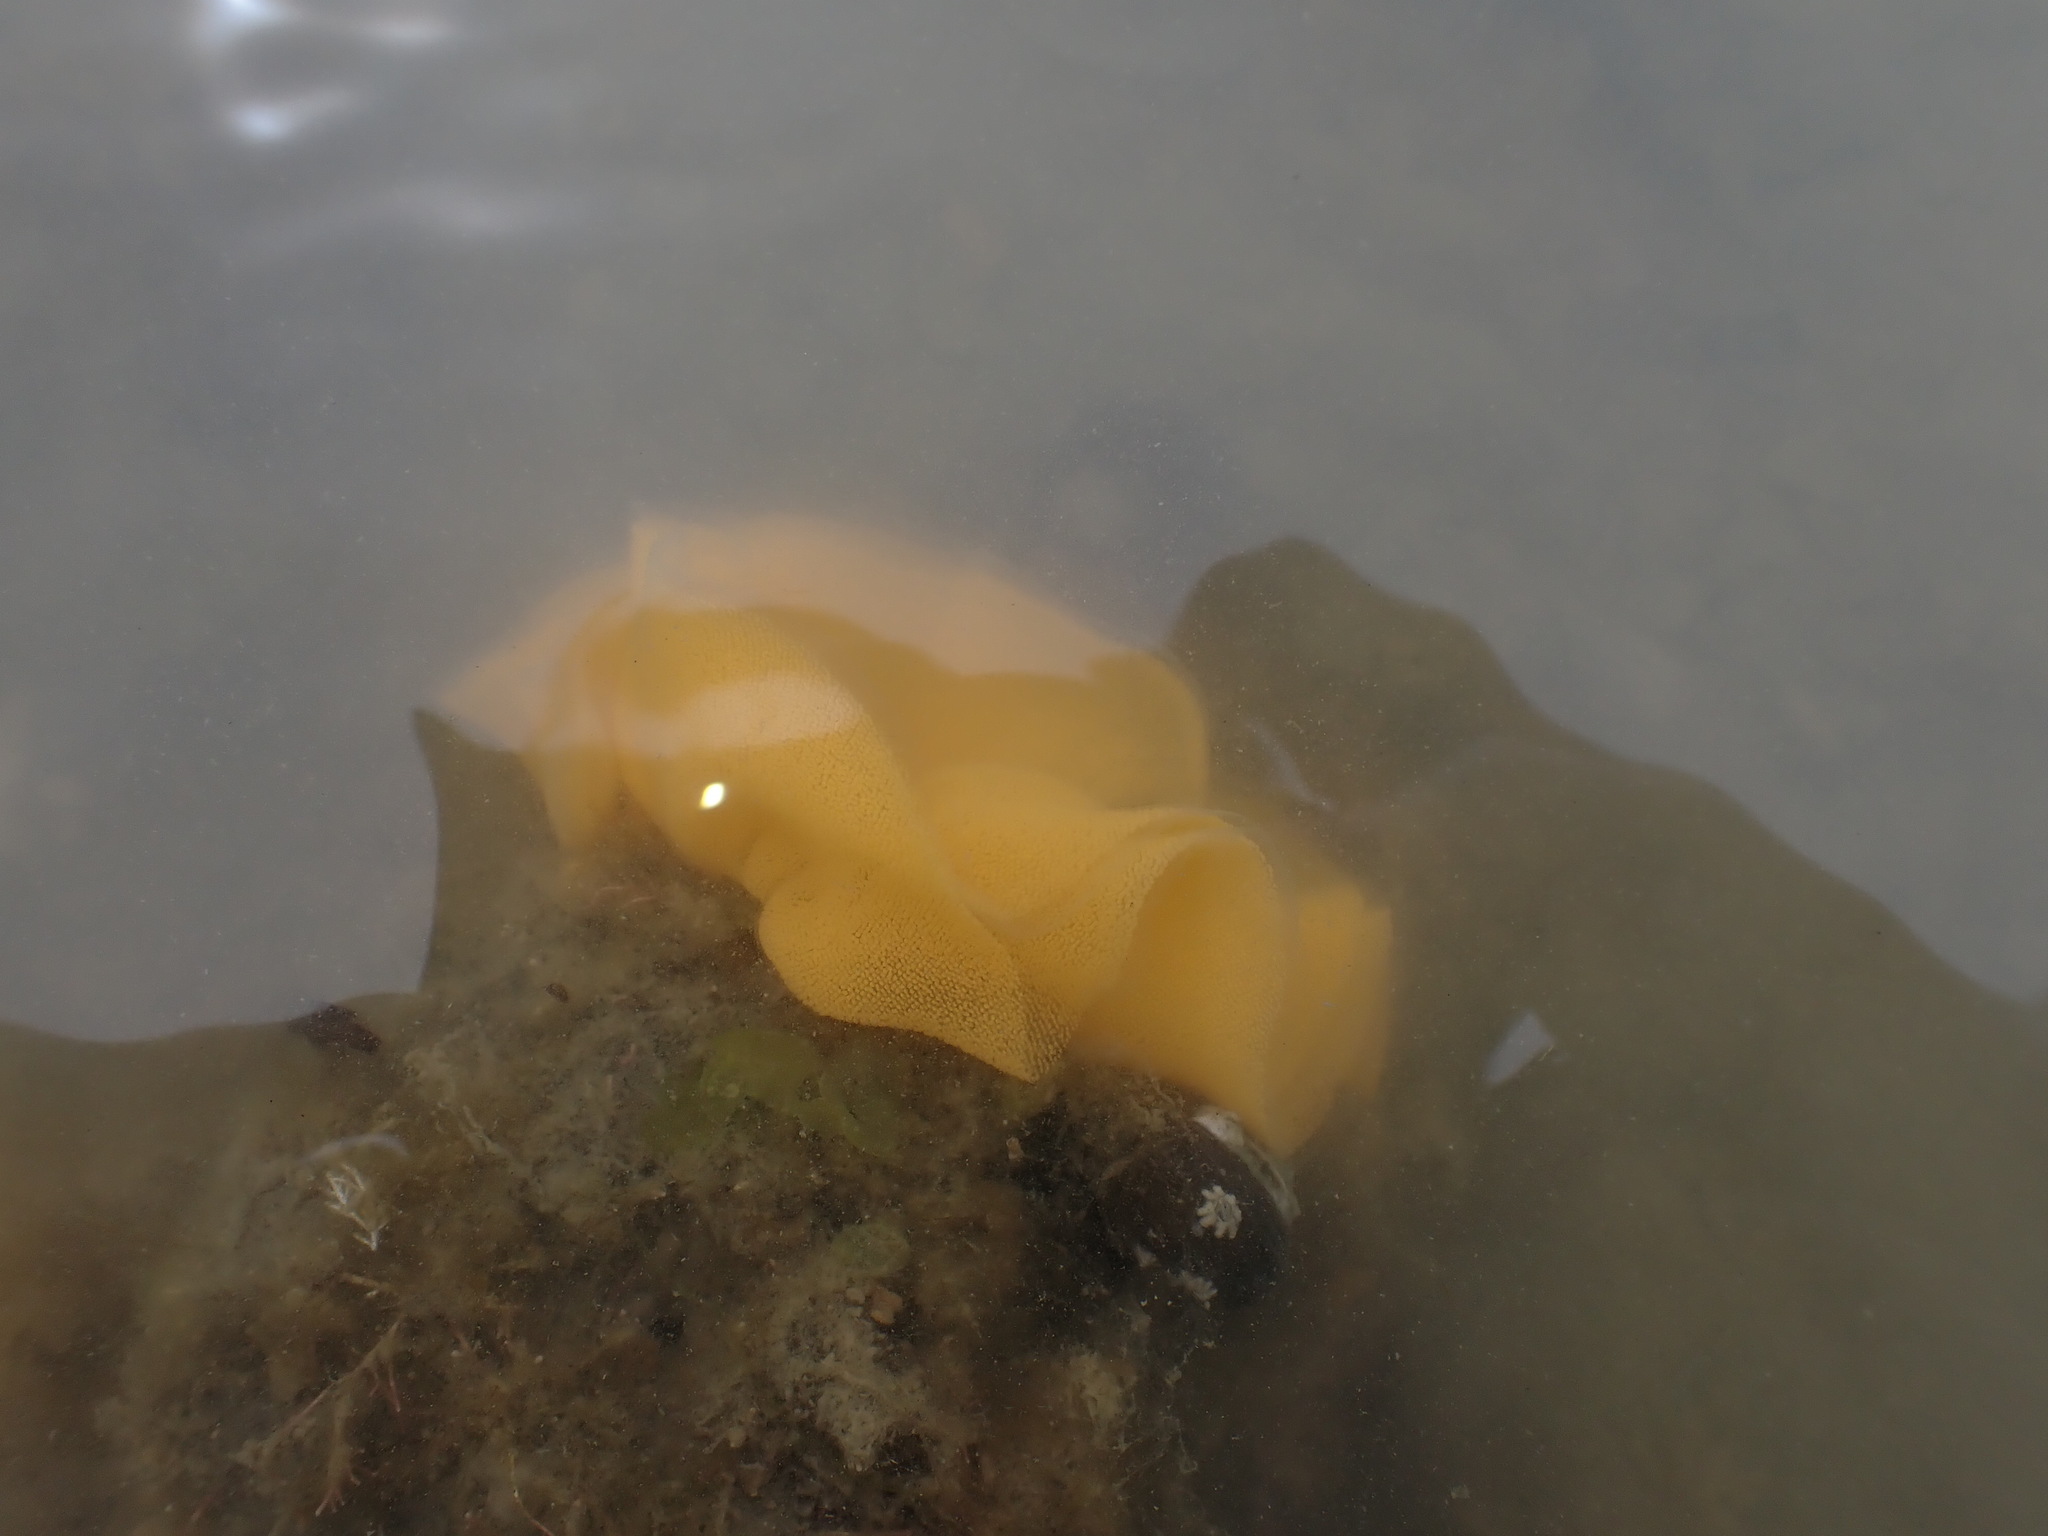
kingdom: Animalia
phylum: Mollusca
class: Gastropoda
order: Nudibranchia
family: Dorididae
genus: Doris
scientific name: Doris wellingtonensis
